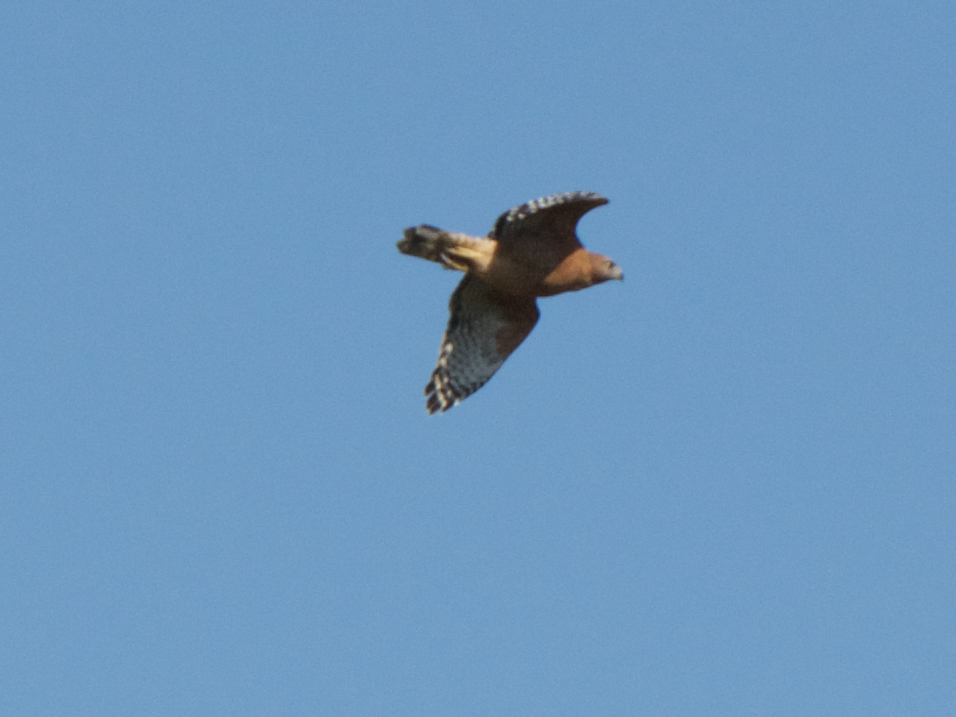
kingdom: Animalia
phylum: Chordata
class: Aves
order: Accipitriformes
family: Accipitridae
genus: Buteo
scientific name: Buteo lineatus
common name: Red-shouldered hawk
